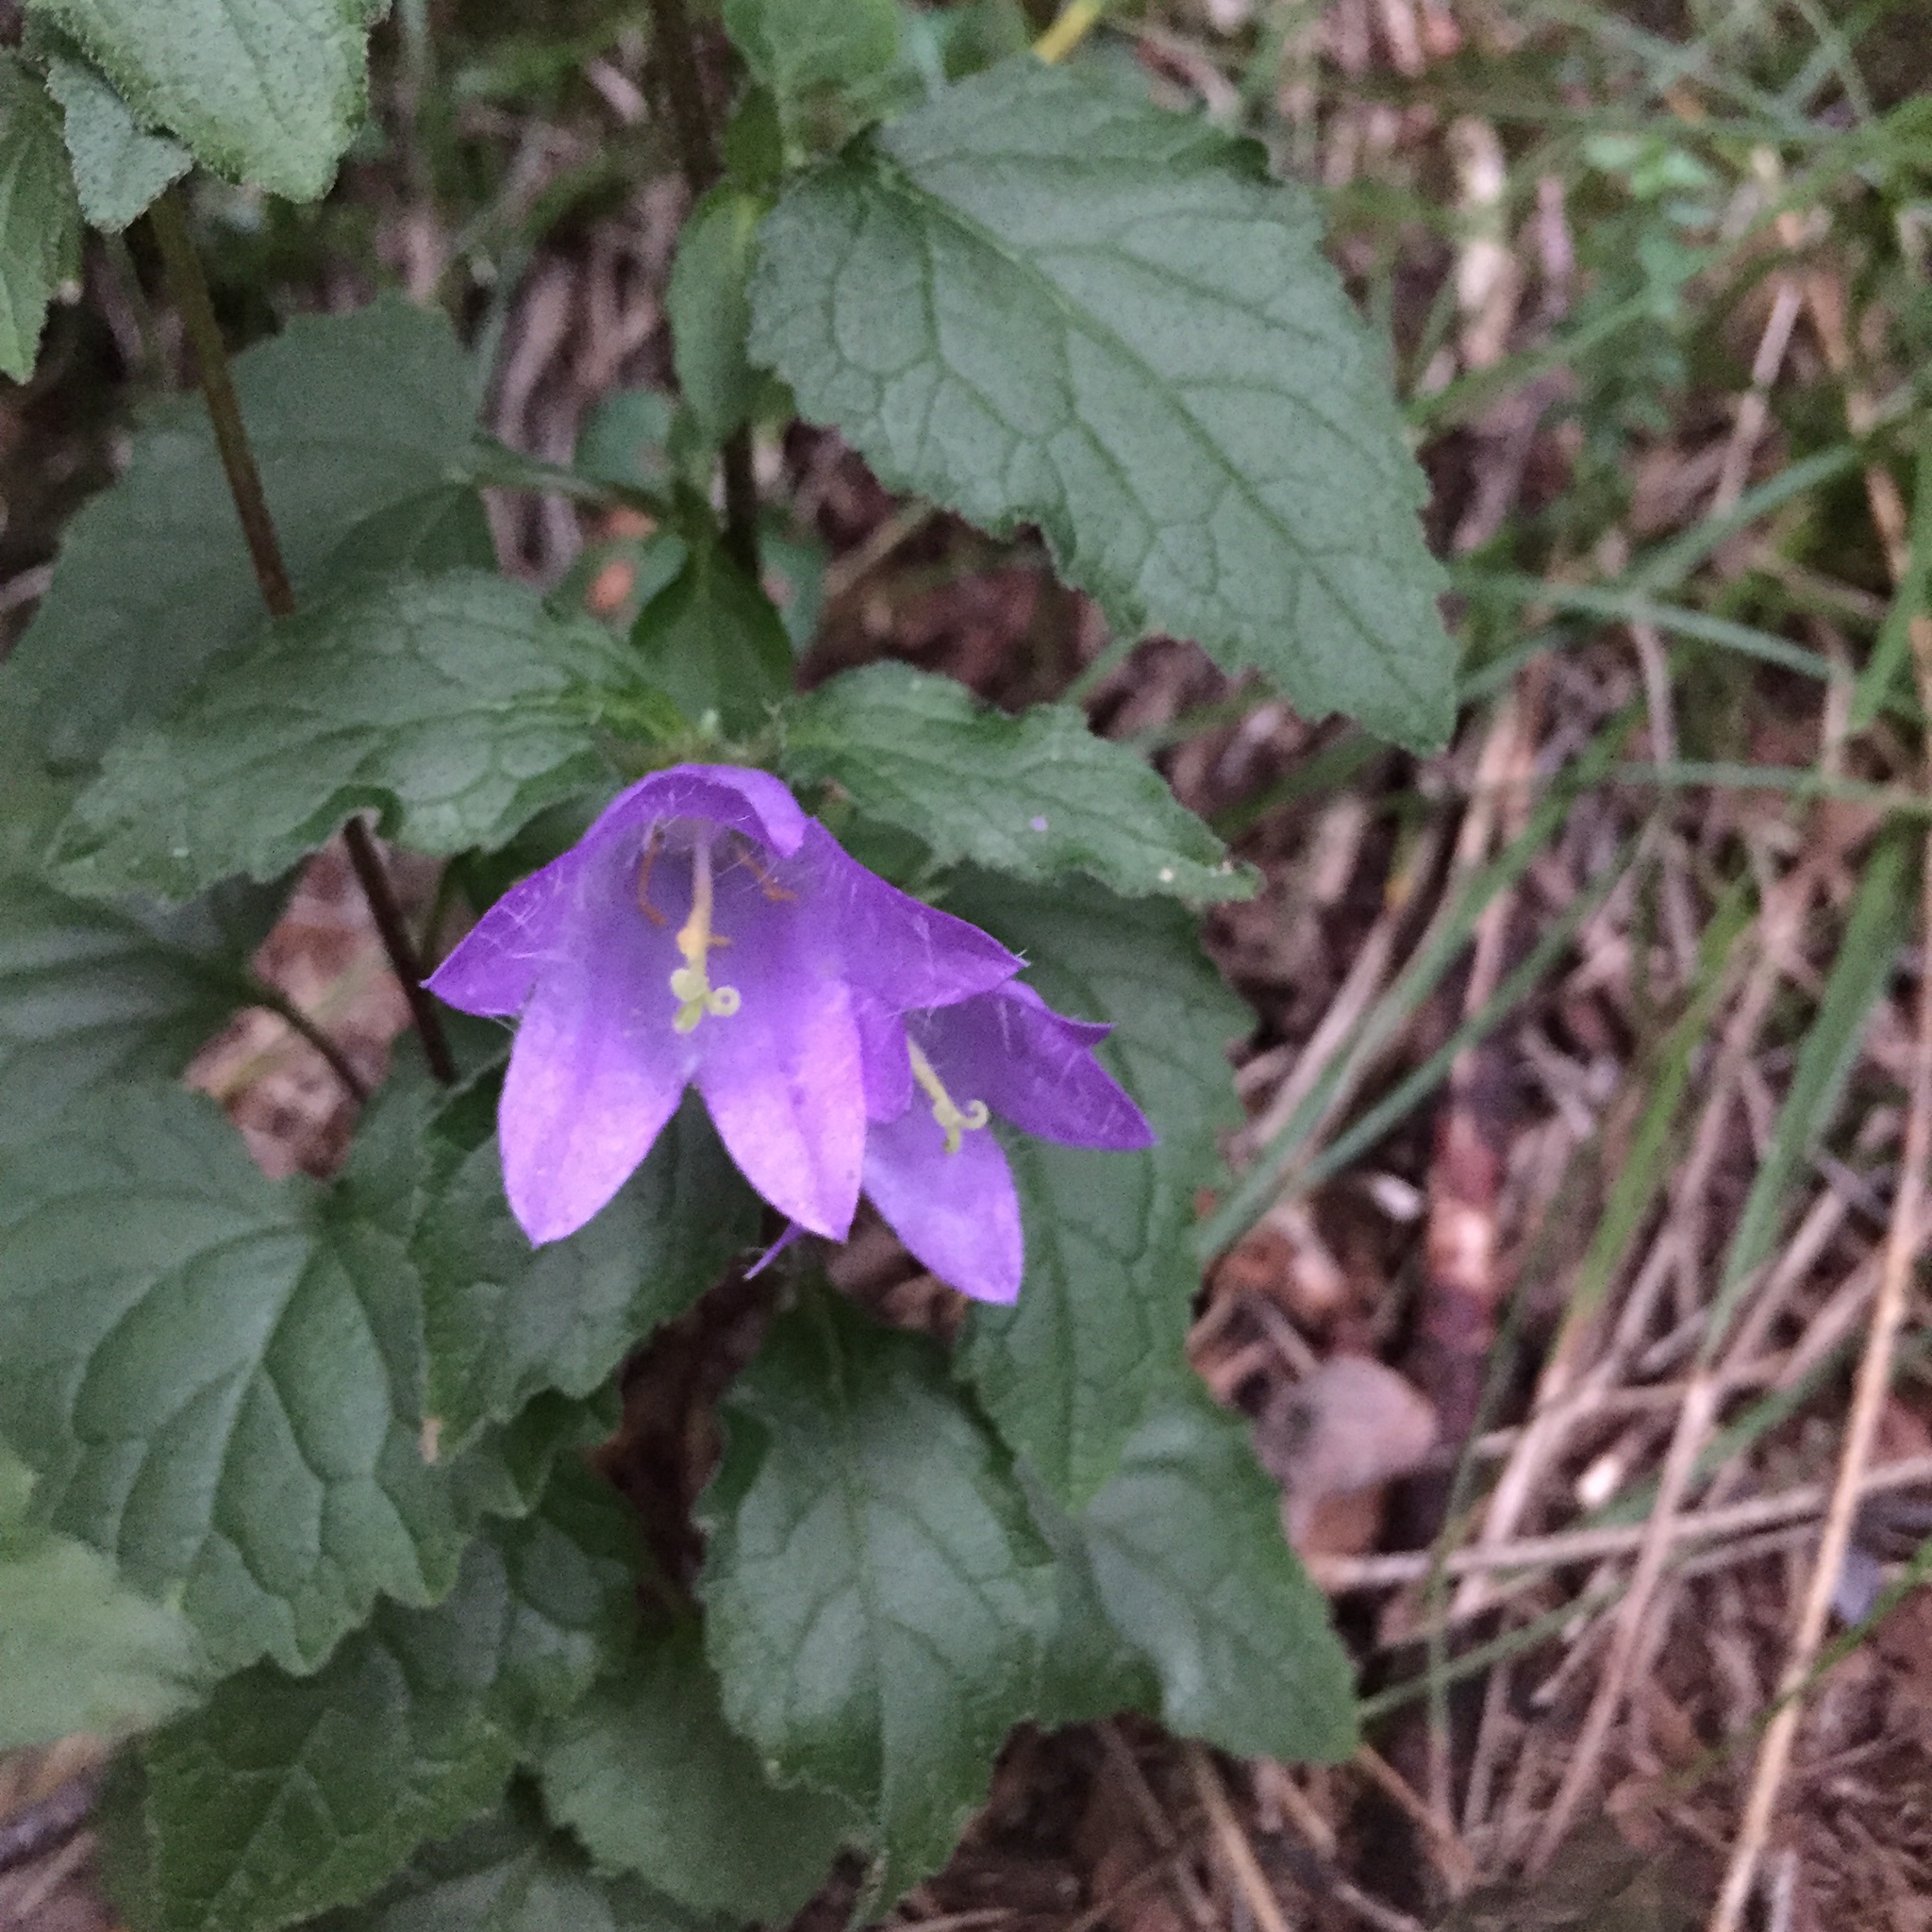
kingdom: Plantae
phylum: Tracheophyta
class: Magnoliopsida
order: Asterales
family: Campanulaceae
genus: Campanula
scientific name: Campanula trachelium
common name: Nettle-leaved bellflower
